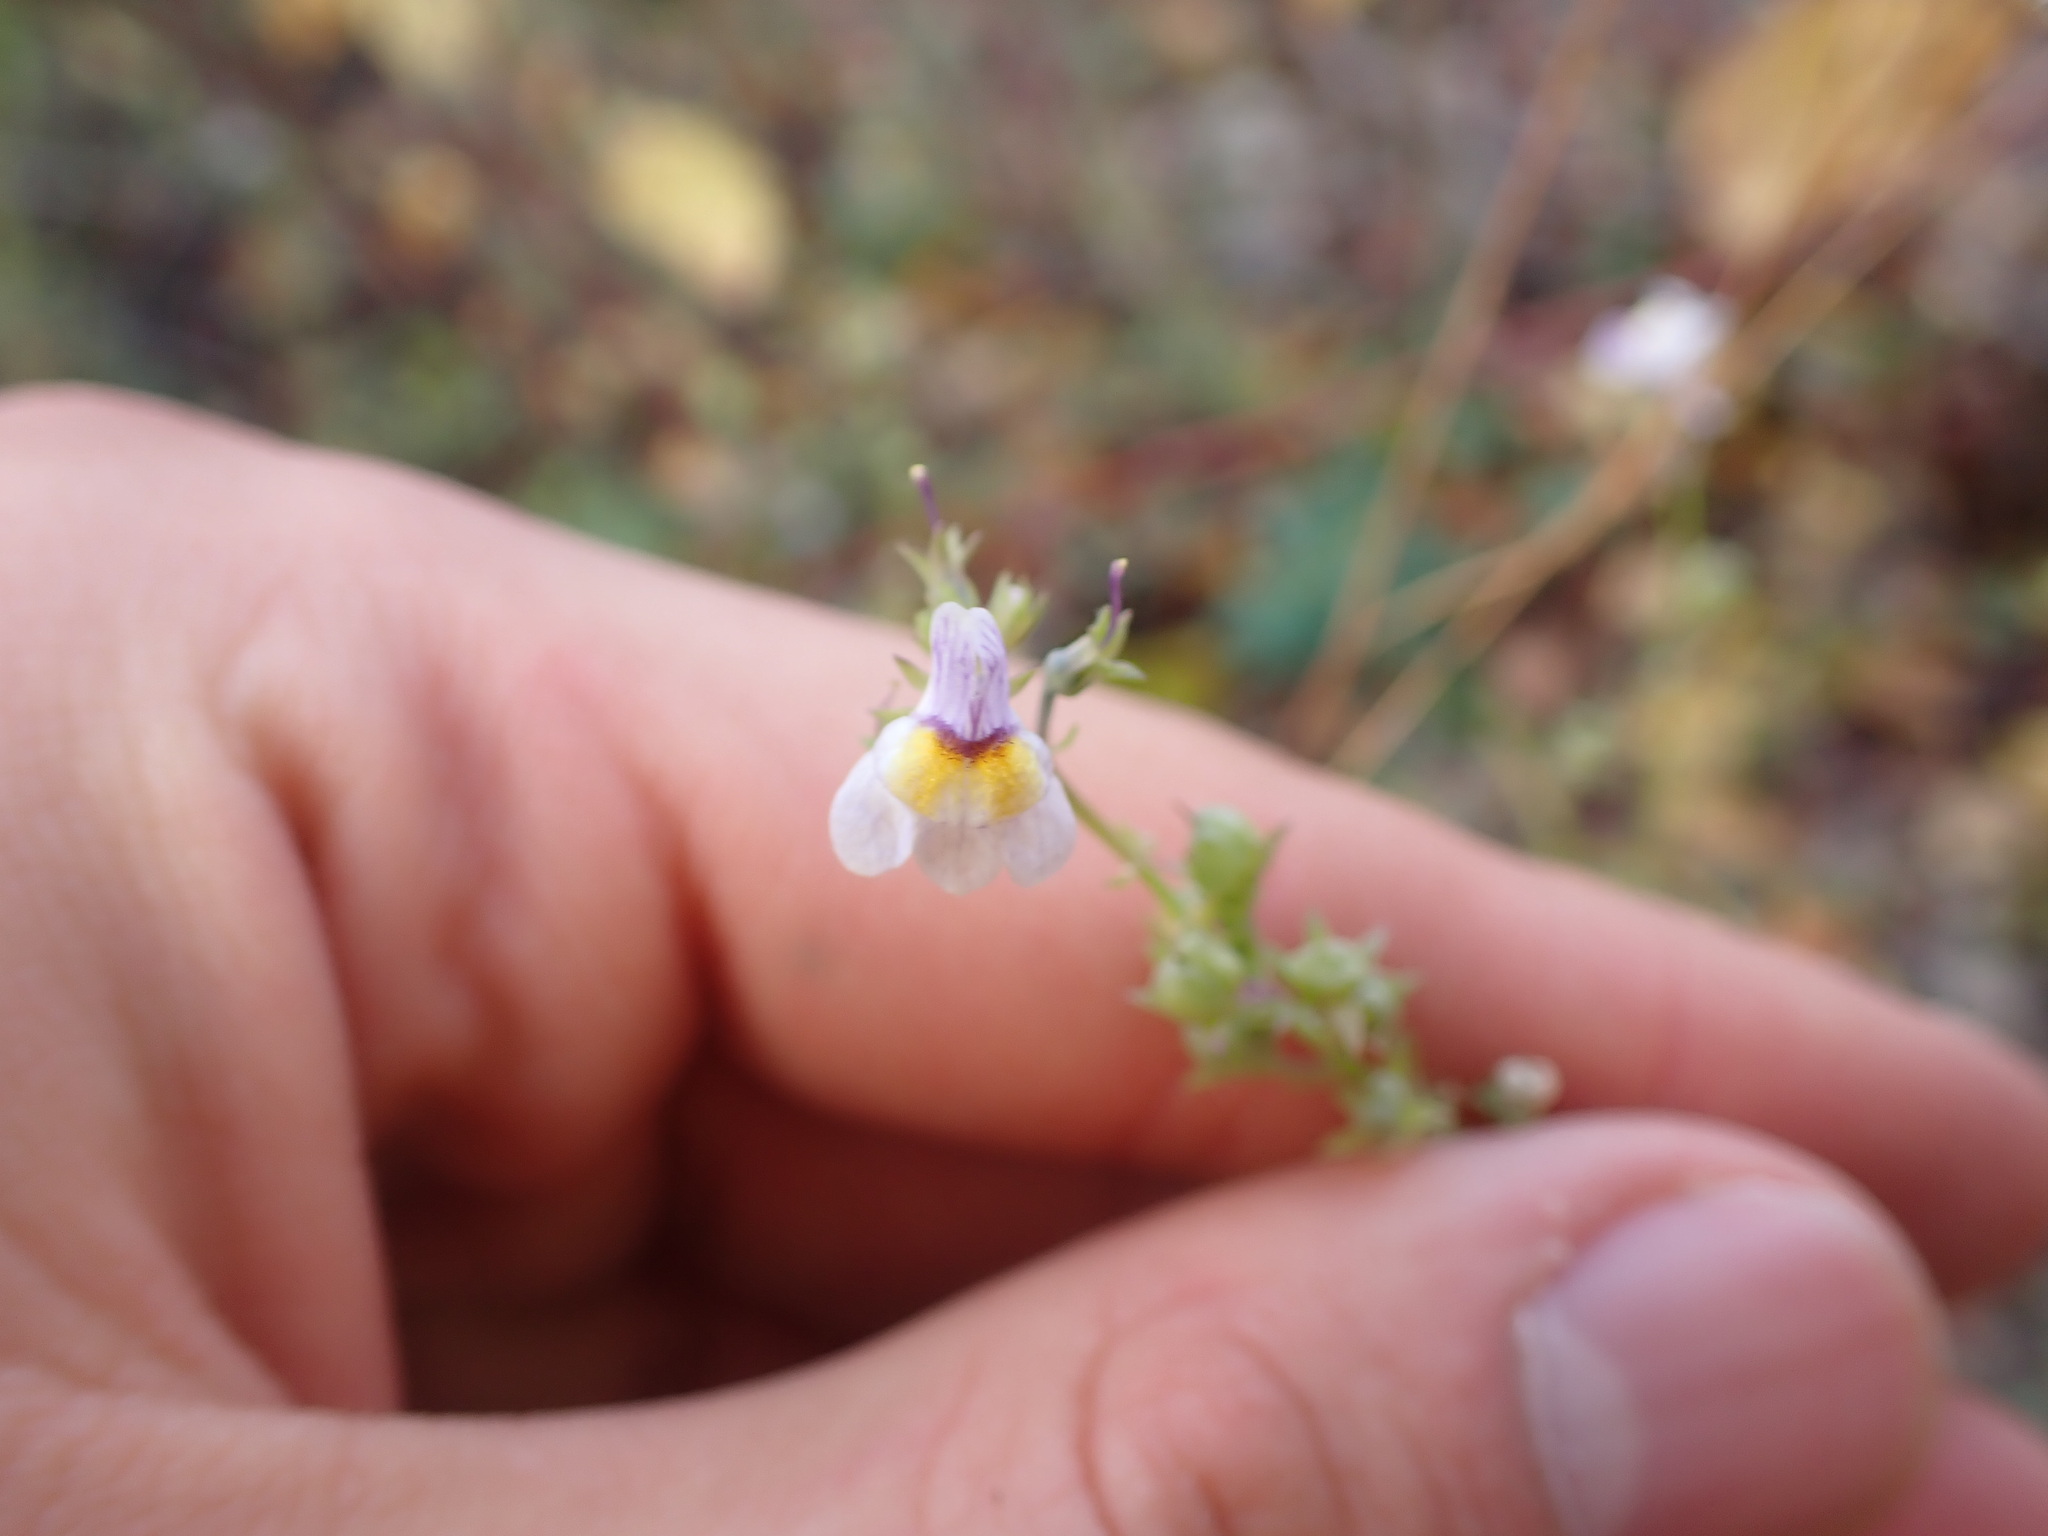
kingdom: Plantae
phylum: Tracheophyta
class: Magnoliopsida
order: Lamiales
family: Plantaginaceae
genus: Linaria
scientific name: Linaria repens
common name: Pale toadflax
